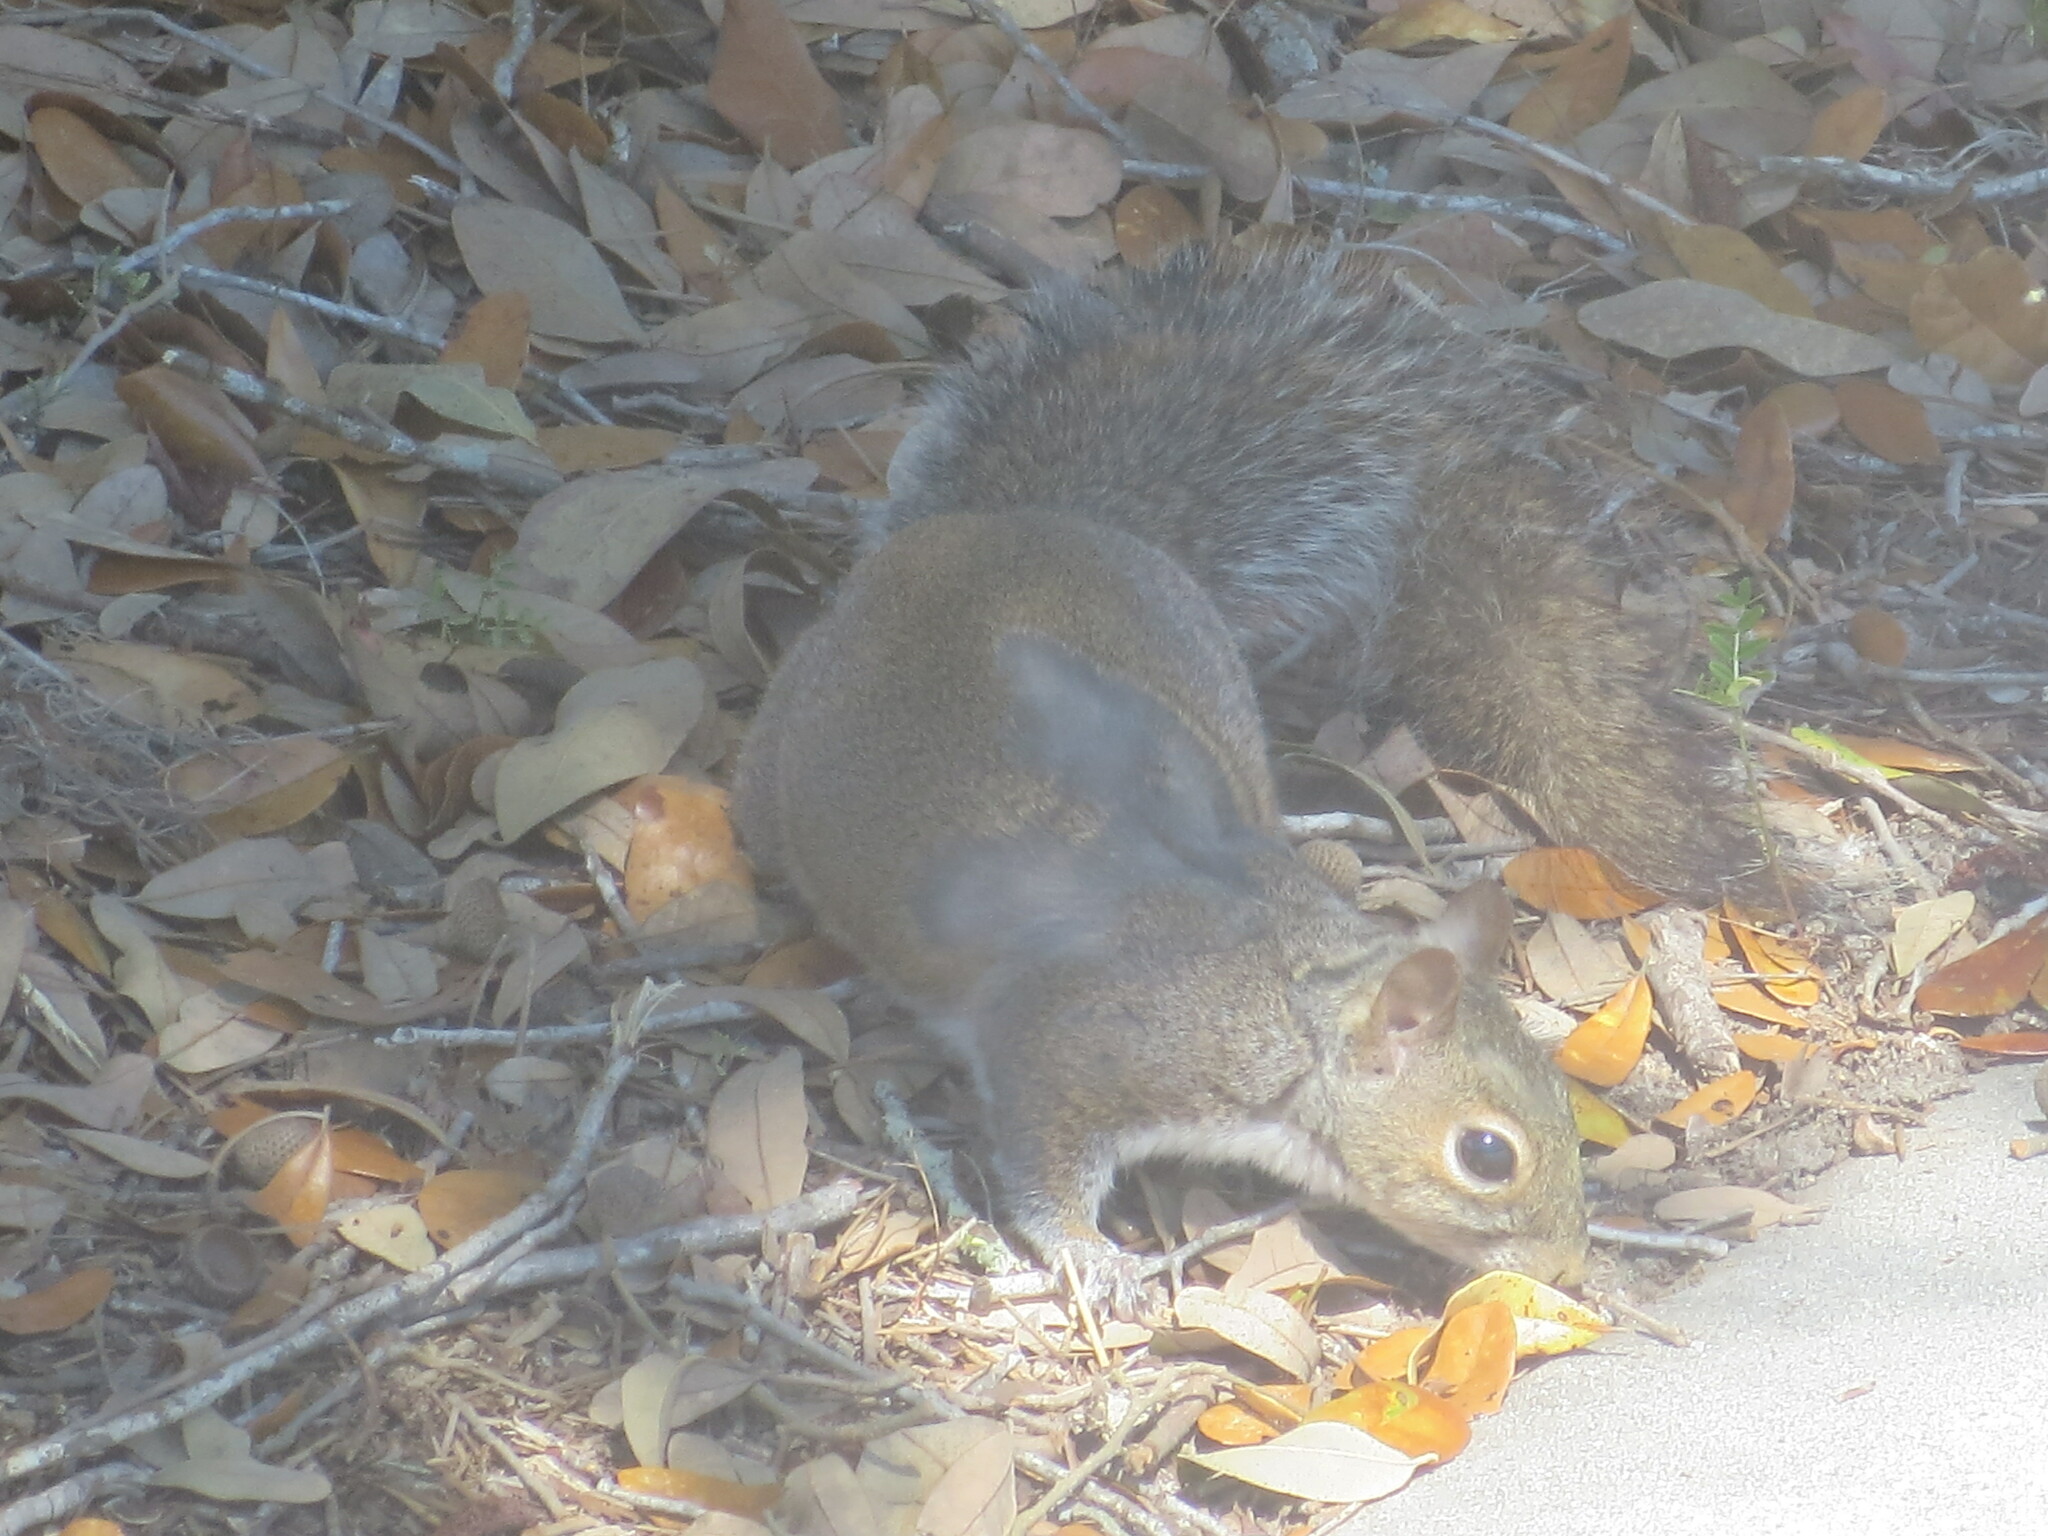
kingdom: Animalia
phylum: Chordata
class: Mammalia
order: Rodentia
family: Sciuridae
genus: Sciurus
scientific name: Sciurus carolinensis
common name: Eastern gray squirrel
